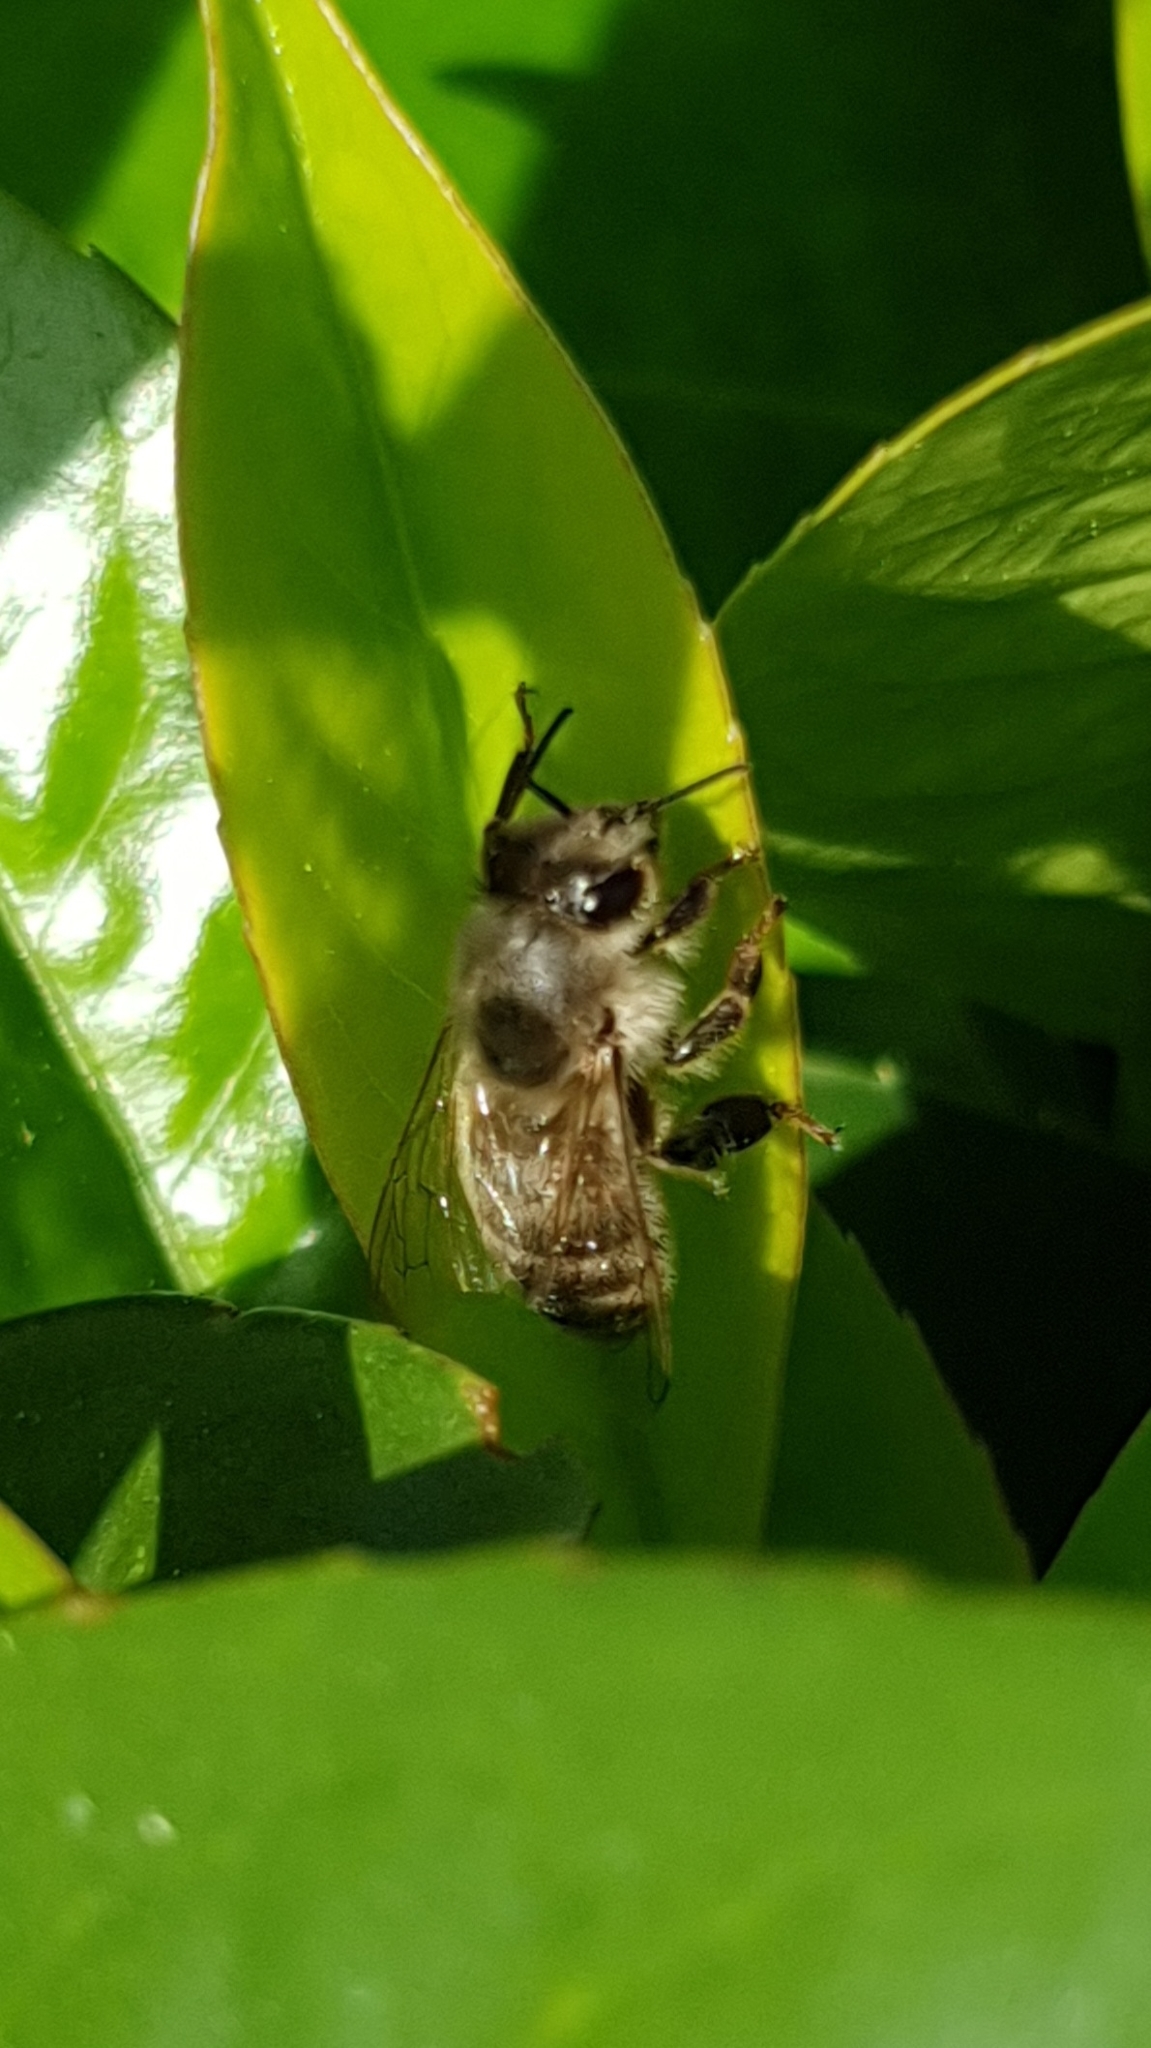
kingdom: Animalia
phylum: Arthropoda
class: Insecta
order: Hymenoptera
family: Apidae
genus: Apis
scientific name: Apis mellifera
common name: Honey bee
